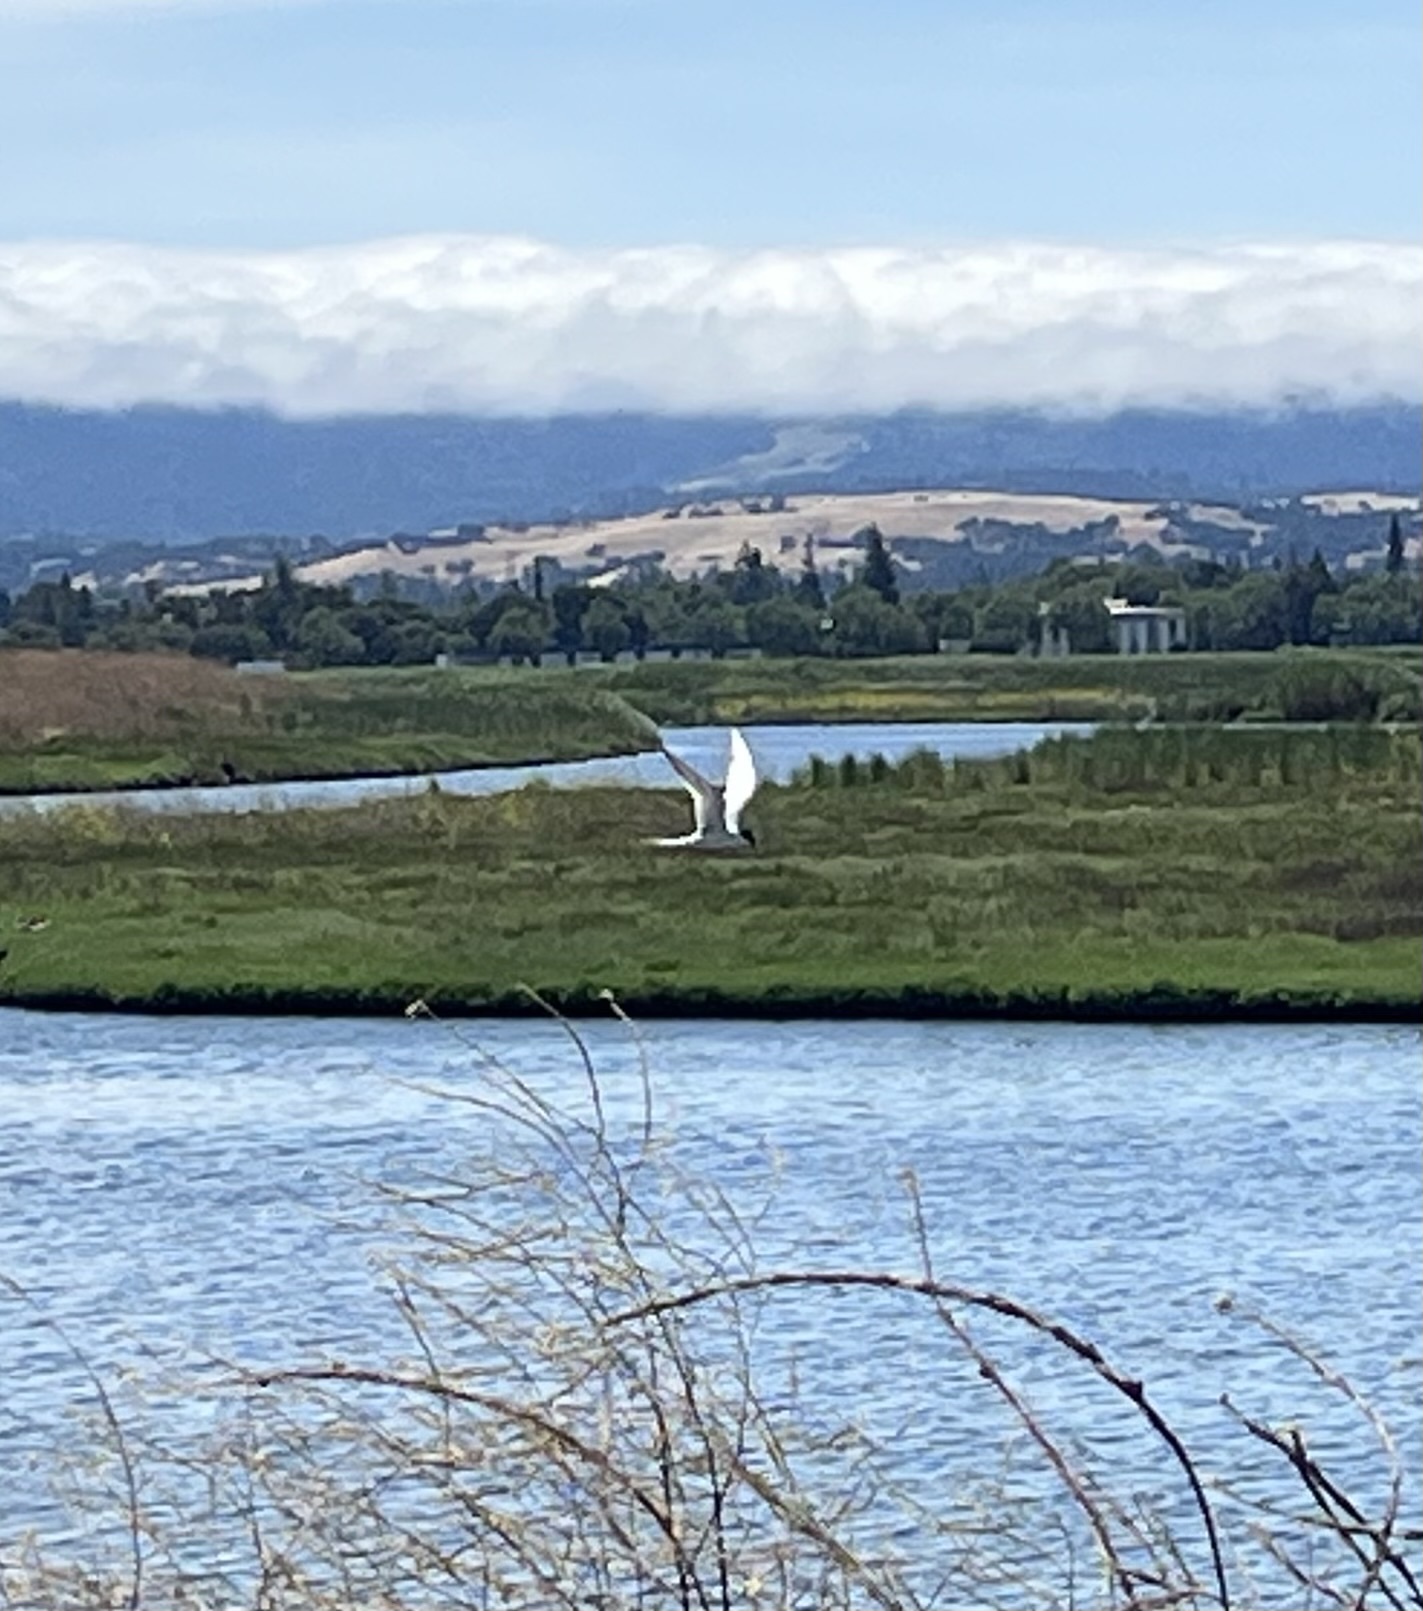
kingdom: Animalia
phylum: Chordata
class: Aves
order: Charadriiformes
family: Laridae
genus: Sterna
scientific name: Sterna forsteri
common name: Forster's tern
